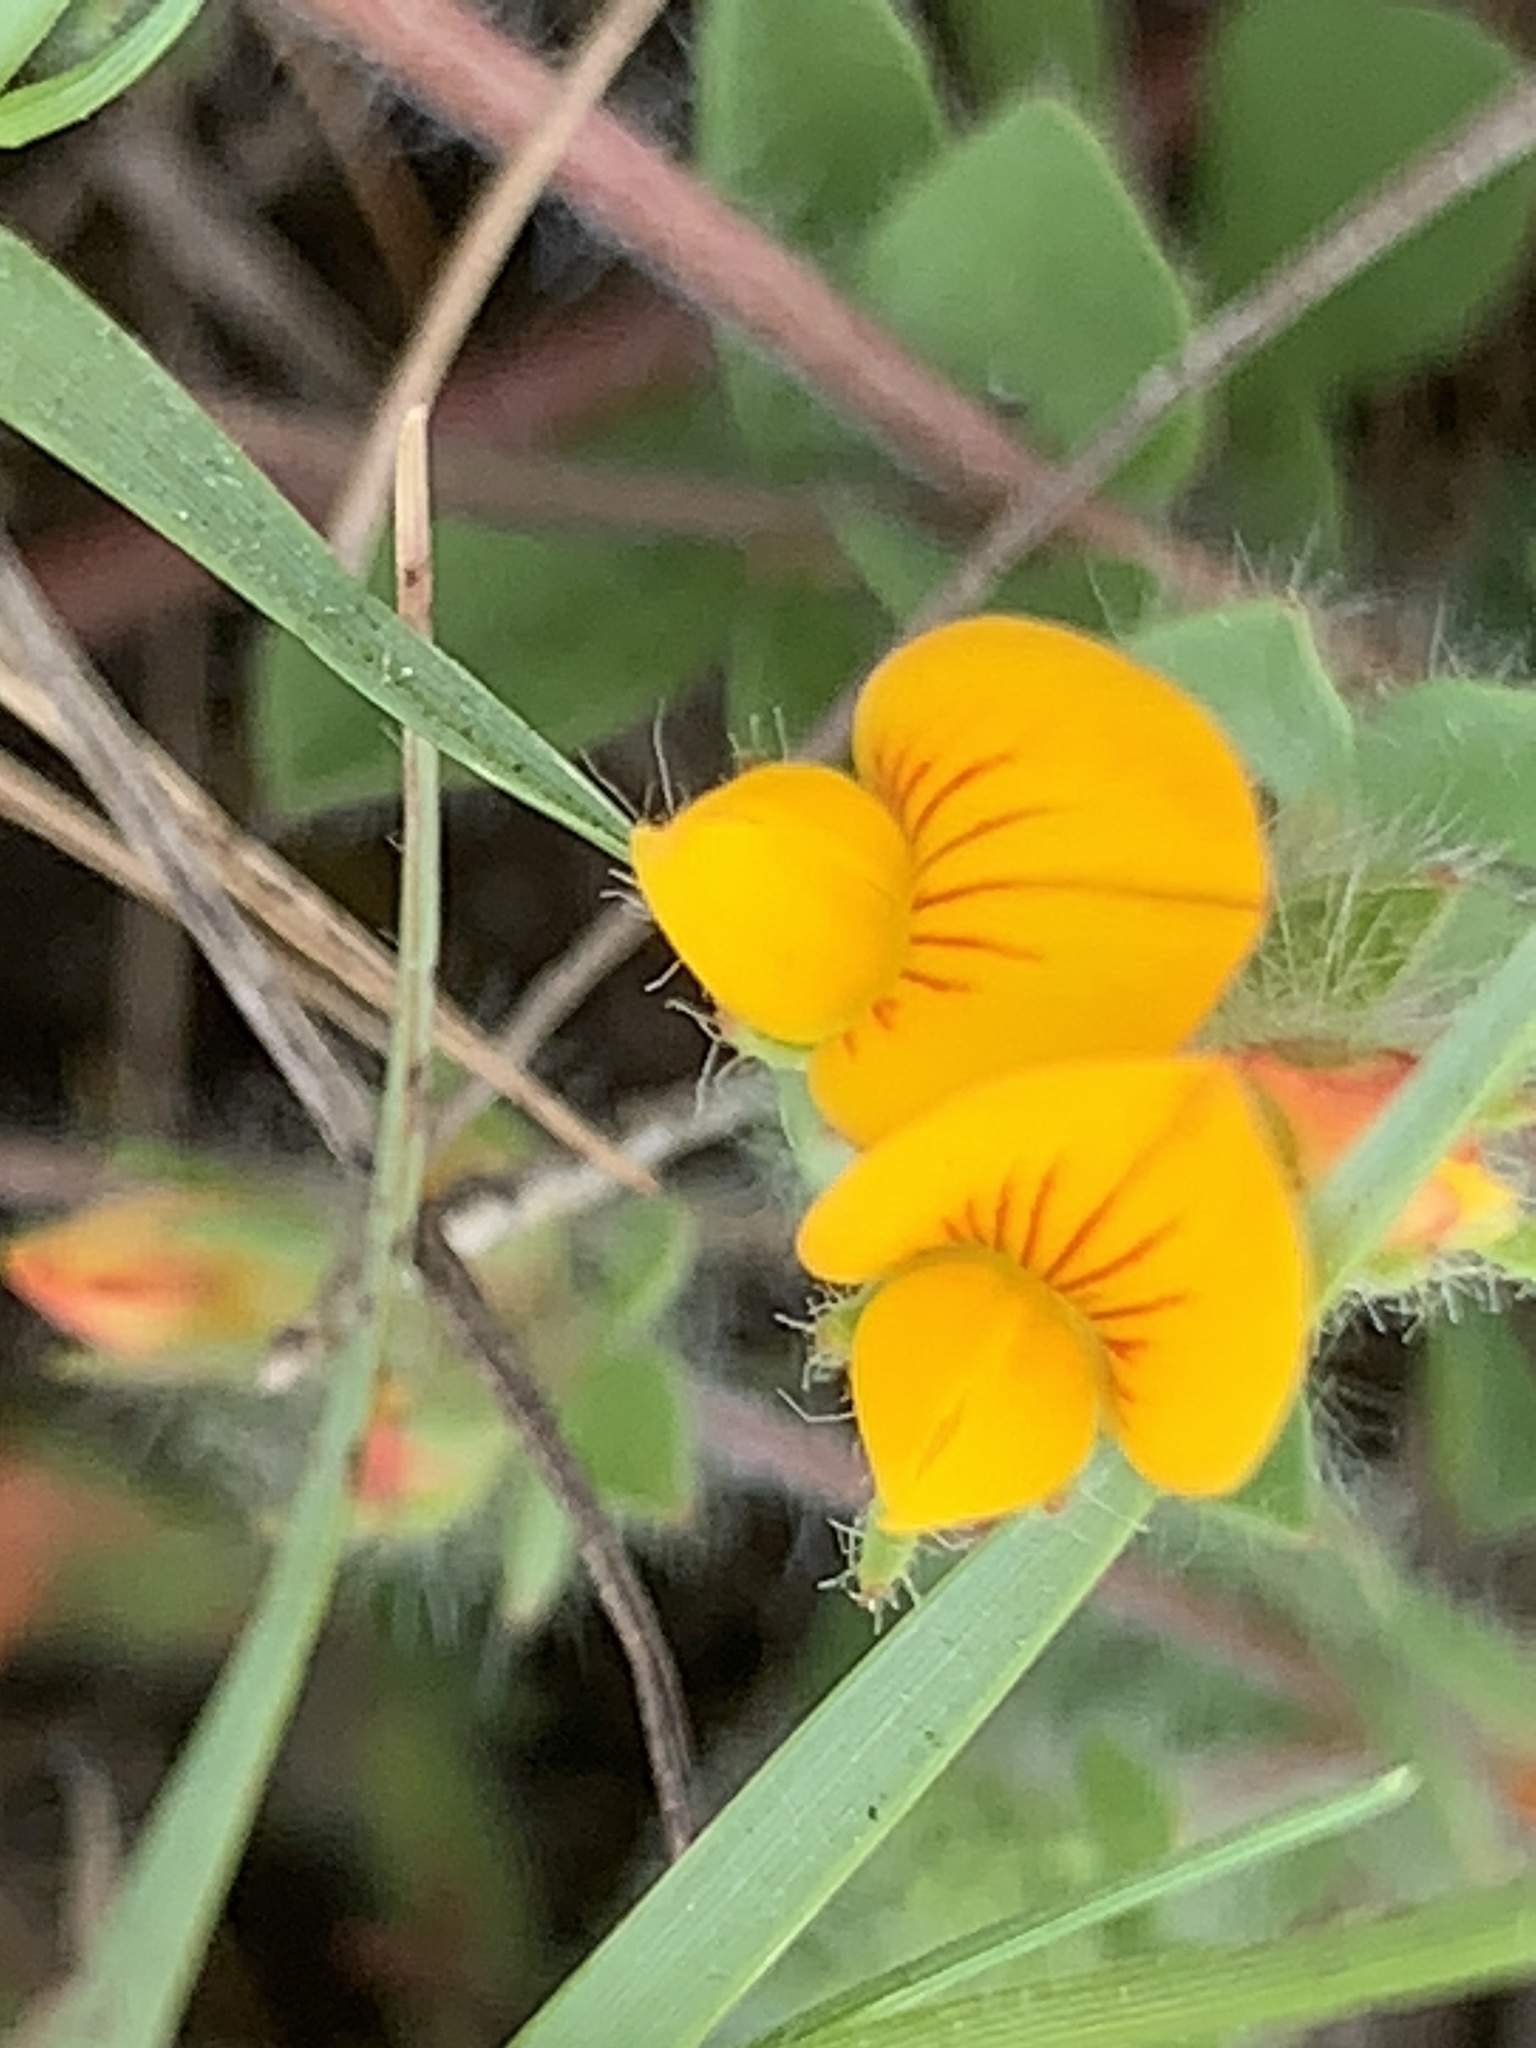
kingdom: Plantae
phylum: Tracheophyta
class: Magnoliopsida
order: Fabales
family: Fabaceae
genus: Lotus
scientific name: Lotus subbiflorus
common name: Hairy bird's-foot trefoil
